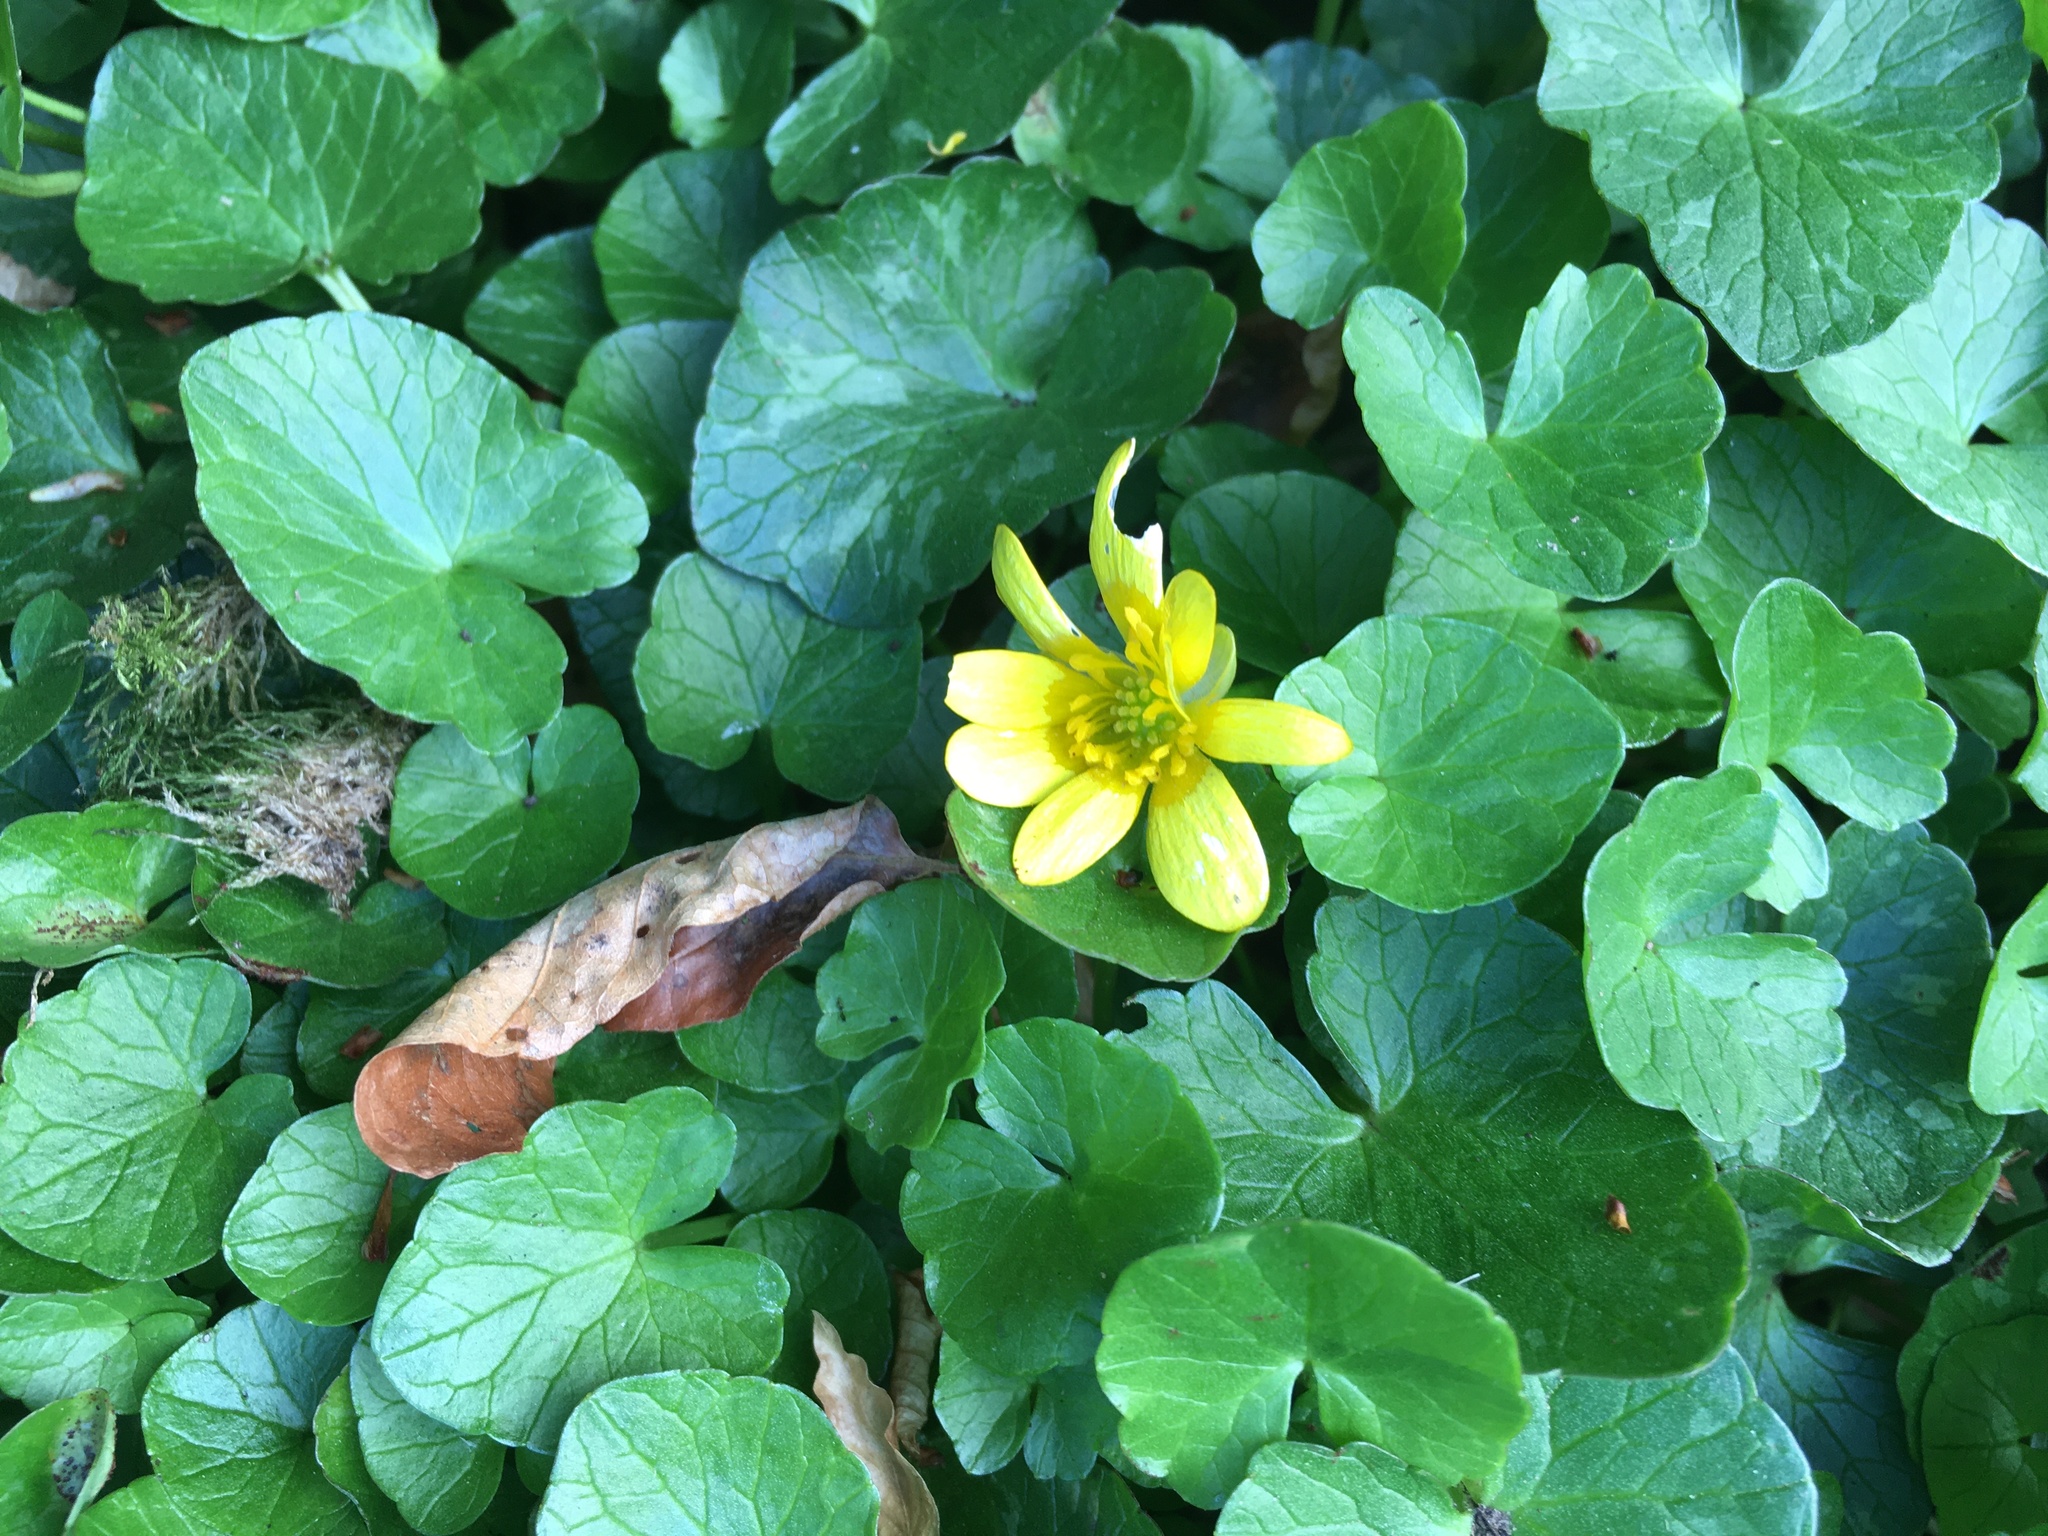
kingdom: Plantae
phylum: Tracheophyta
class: Magnoliopsida
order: Ranunculales
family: Ranunculaceae
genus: Ficaria
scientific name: Ficaria verna
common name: Lesser celandine
